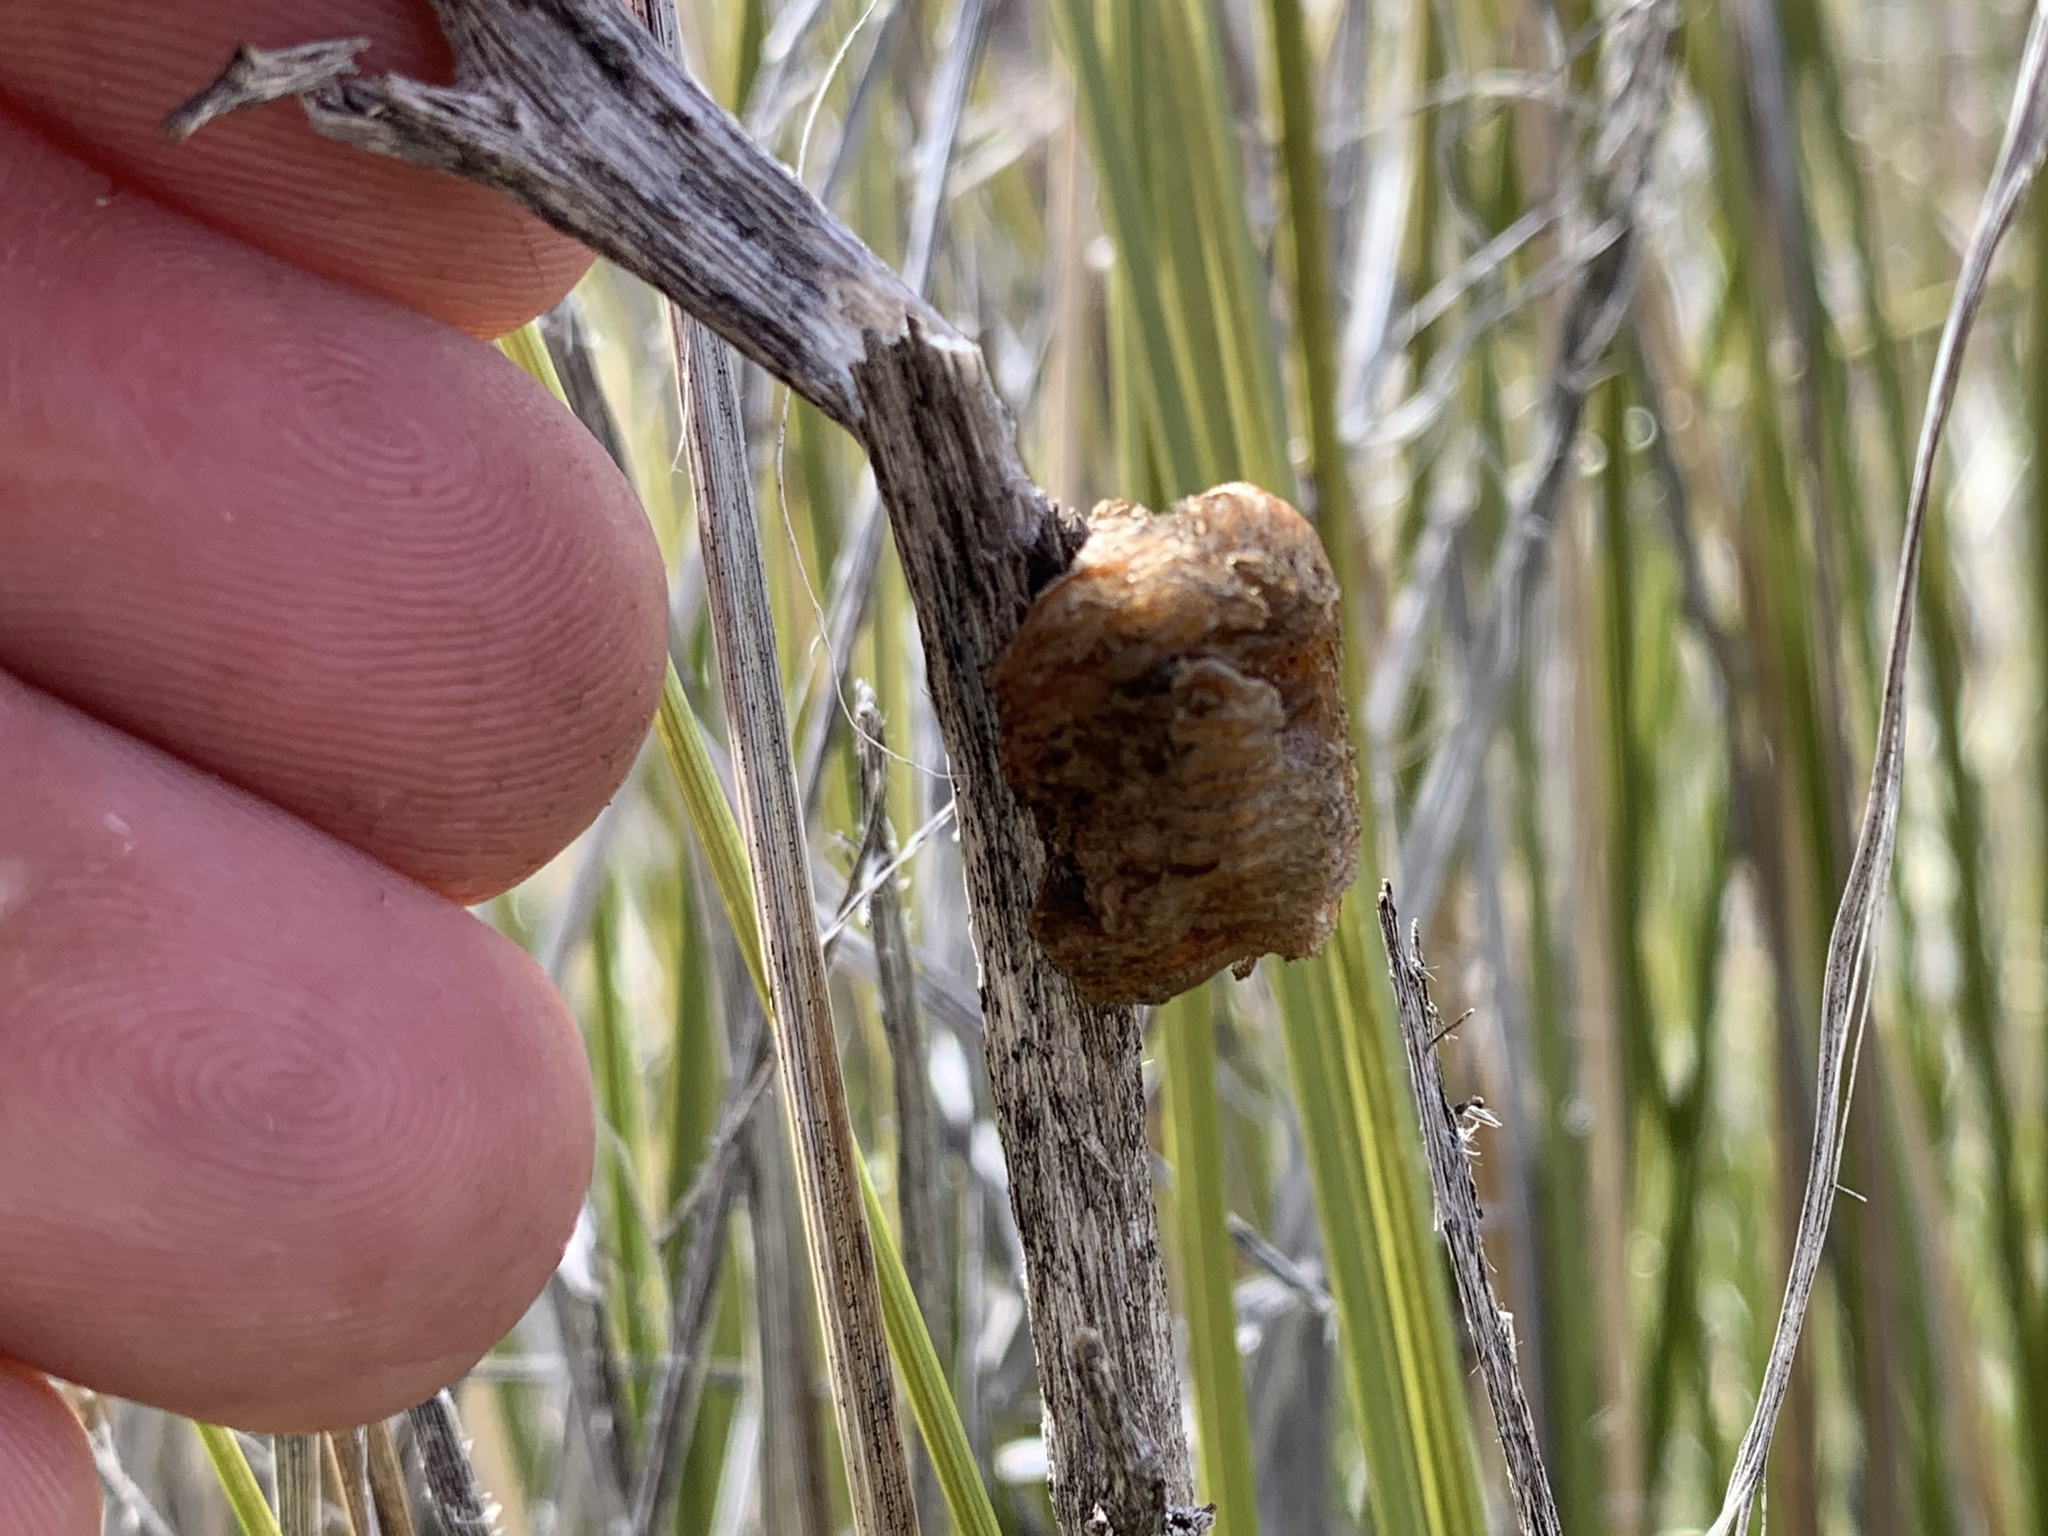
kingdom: Animalia
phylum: Arthropoda
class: Insecta
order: Mantodea
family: Mantidae
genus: Stagmomantis
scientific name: Stagmomantis californica
